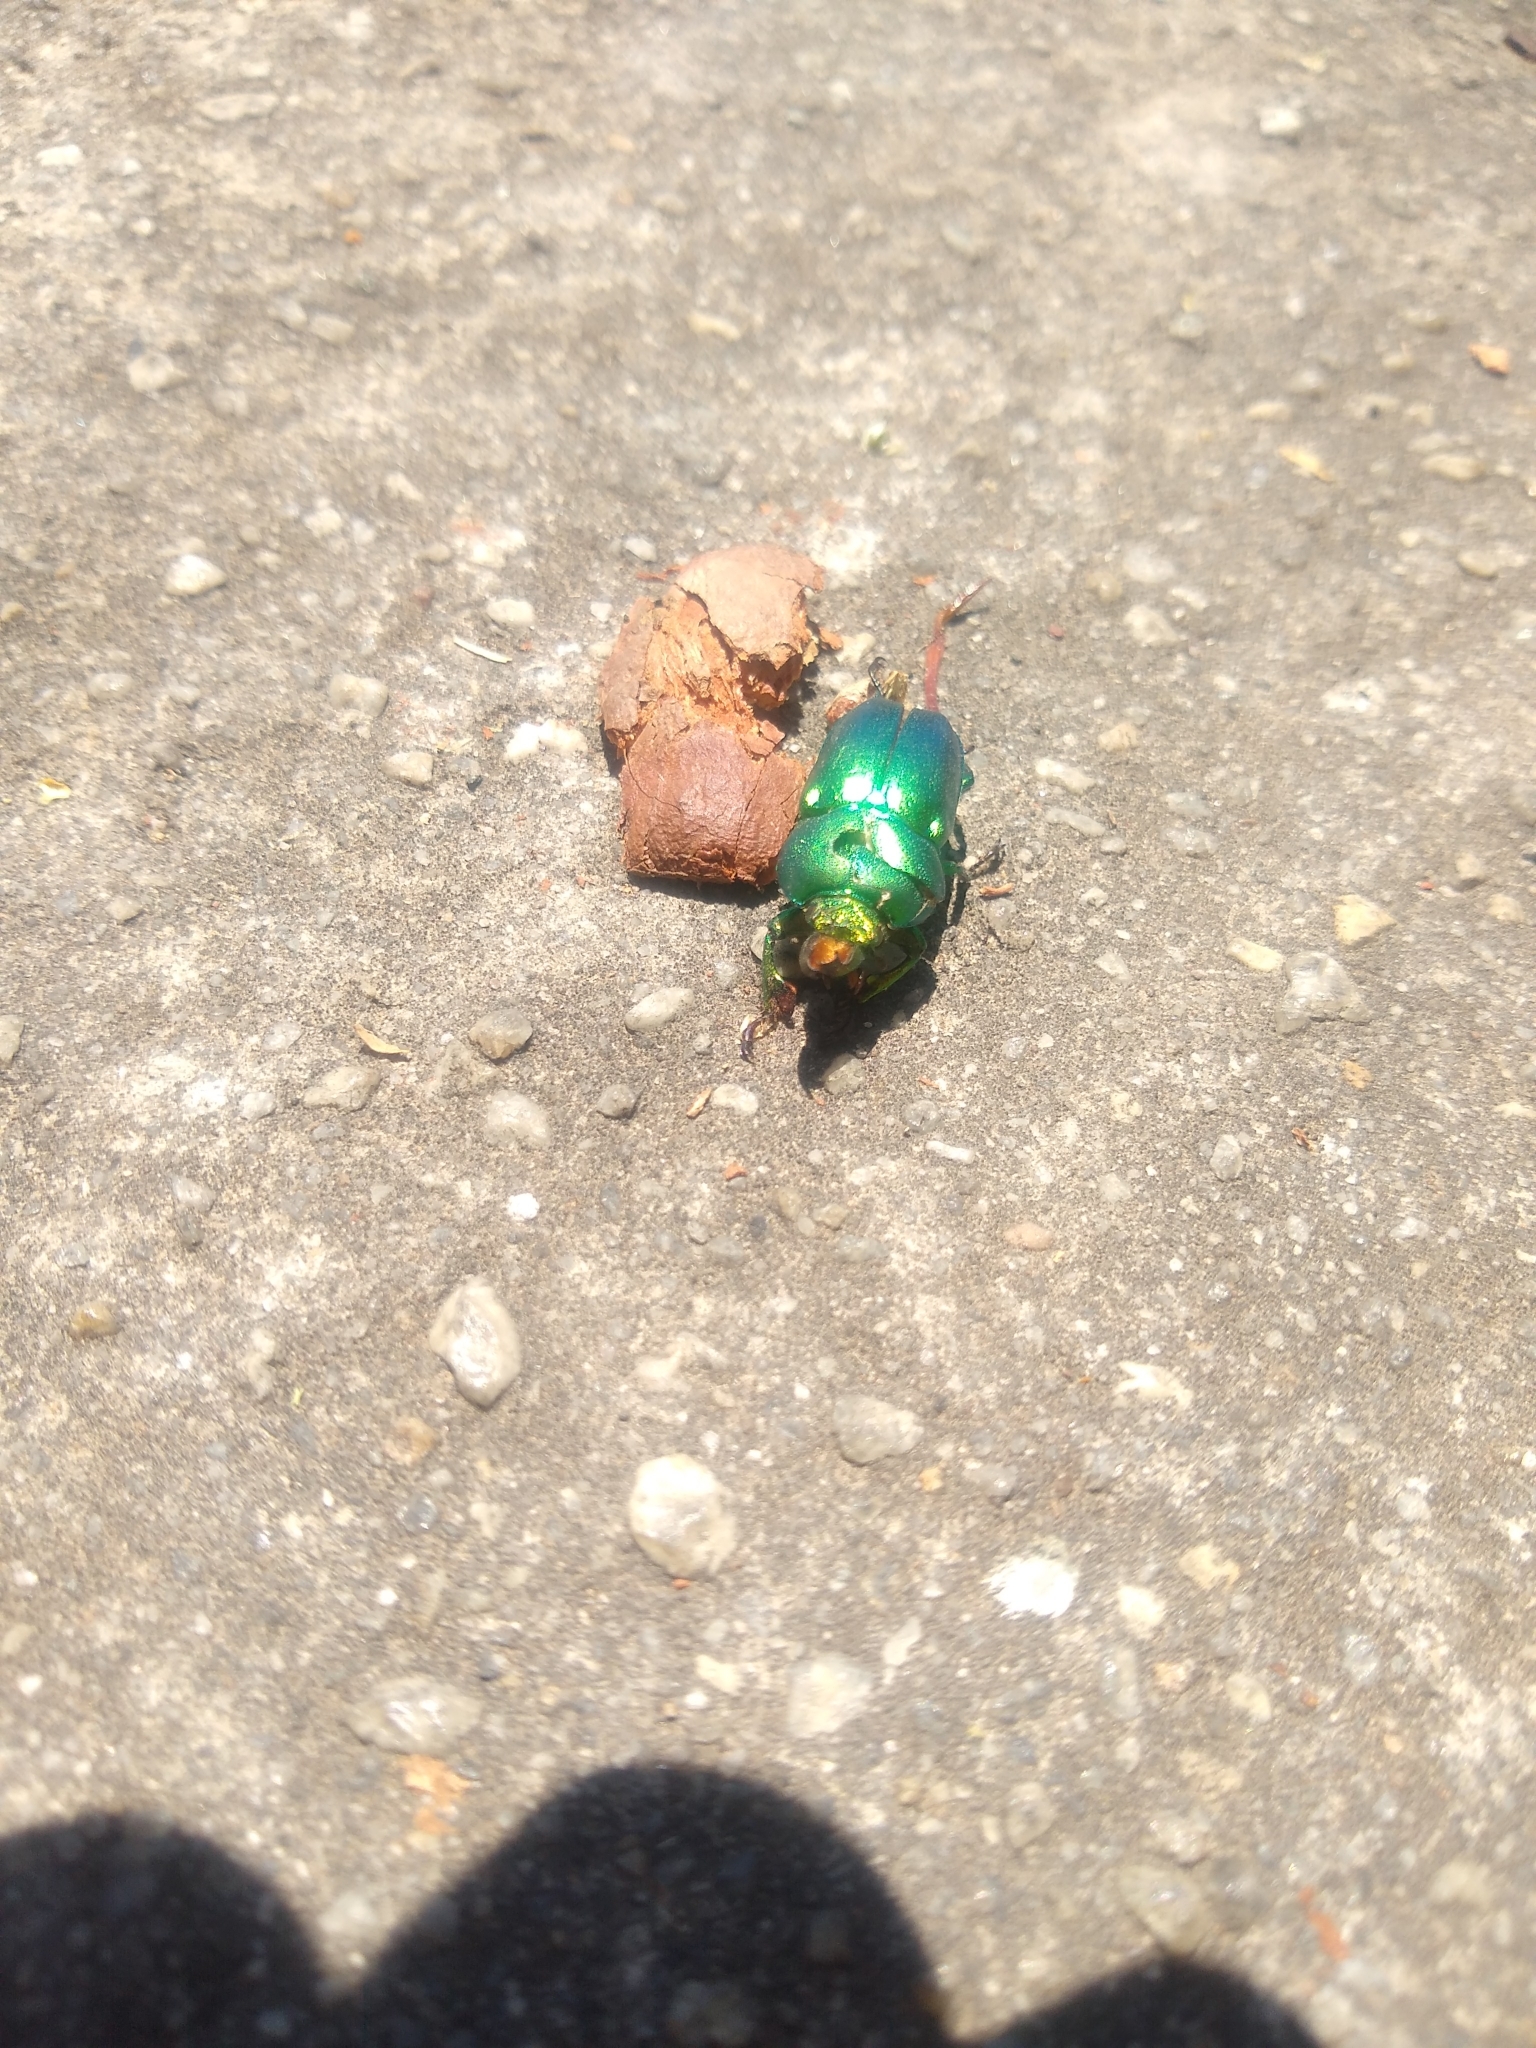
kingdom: Animalia
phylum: Arthropoda
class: Insecta
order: Coleoptera
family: Lucanidae
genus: Lamprima
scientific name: Lamprima aurata
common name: Golden stag beetle
